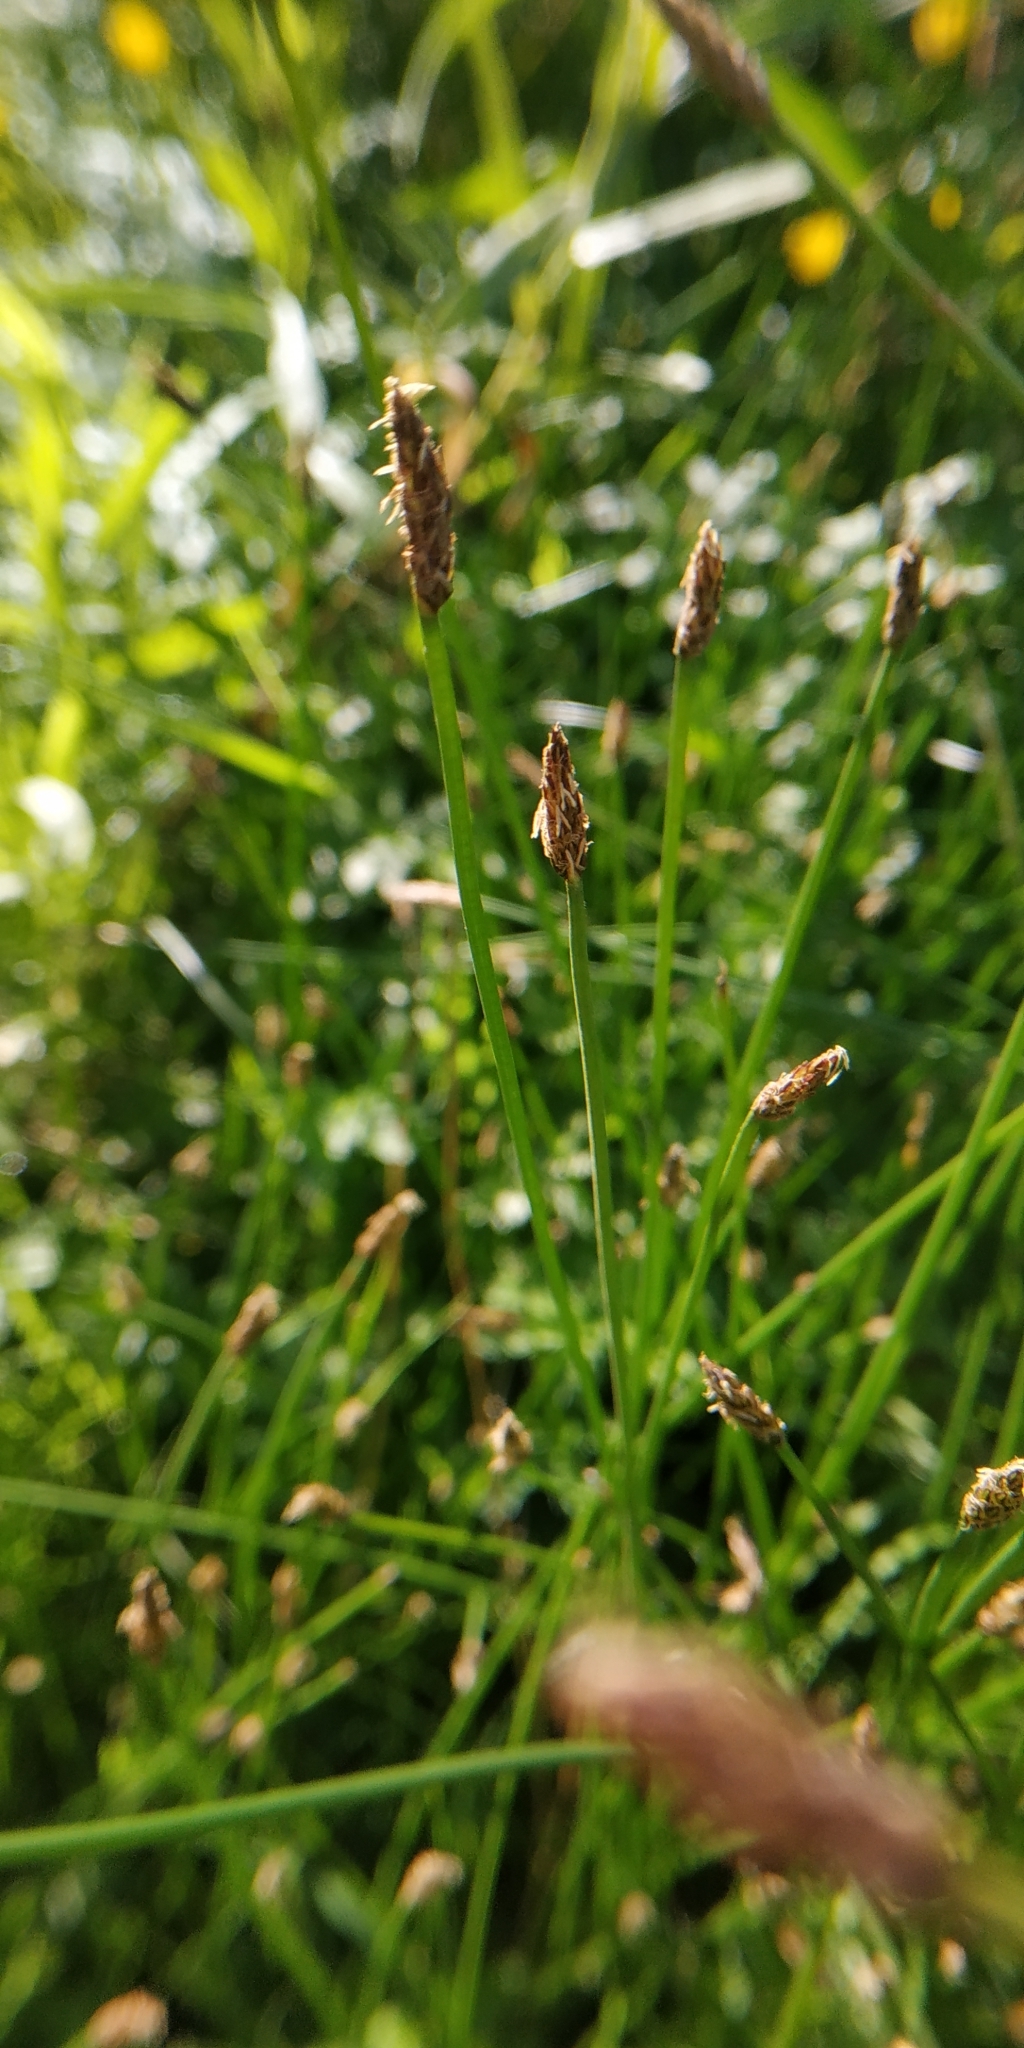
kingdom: Plantae
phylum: Tracheophyta
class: Liliopsida
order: Poales
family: Cyperaceae
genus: Eleocharis
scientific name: Eleocharis palustris
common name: Common spike-rush
